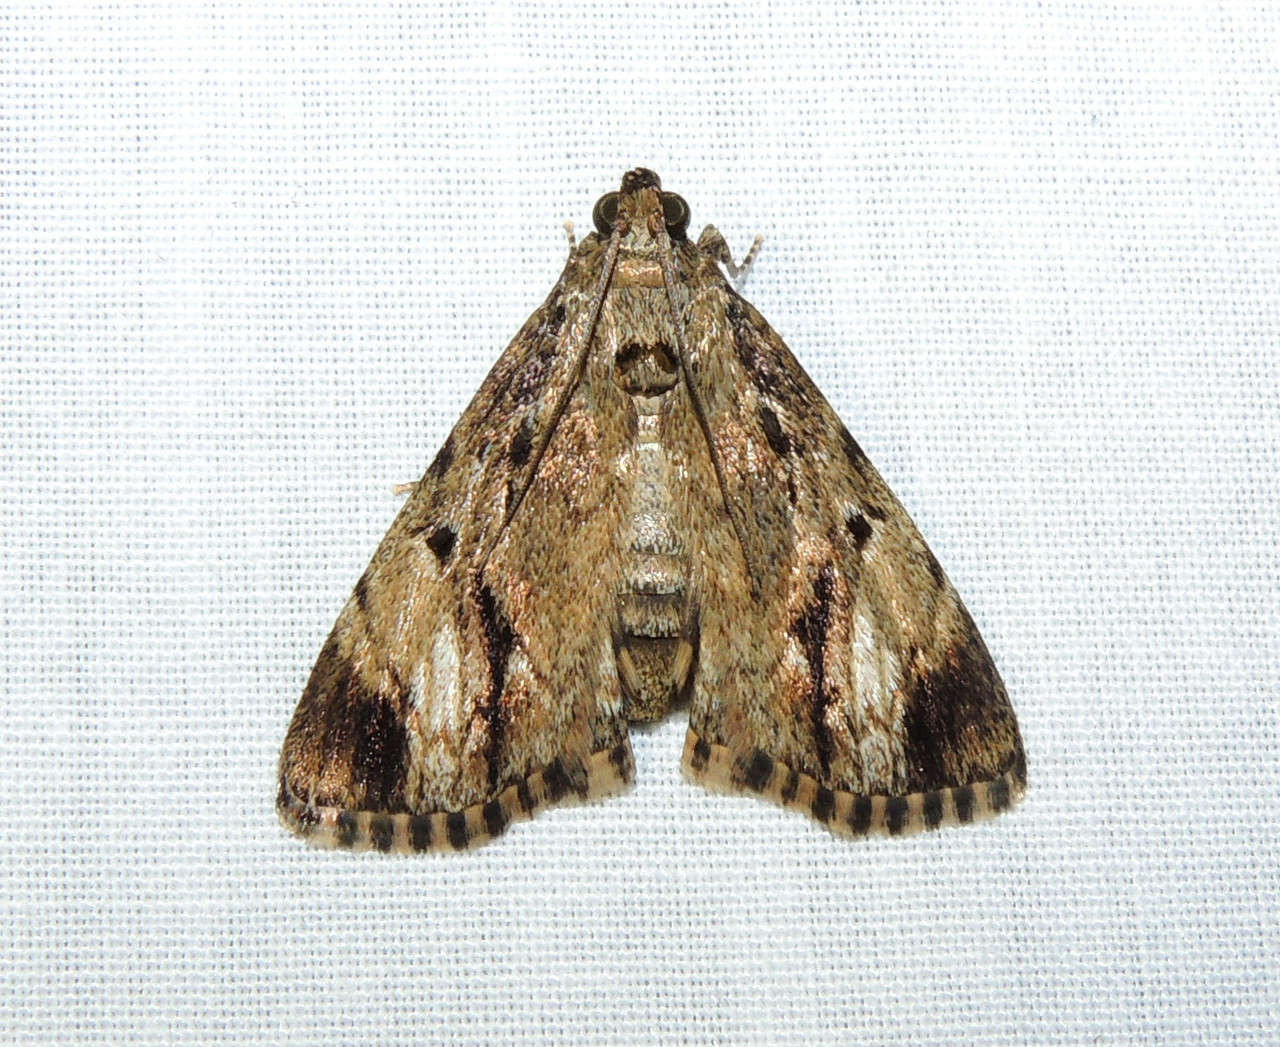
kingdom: Animalia
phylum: Arthropoda
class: Insecta
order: Lepidoptera
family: Pyralidae
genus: Salma
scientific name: Salma cholica
